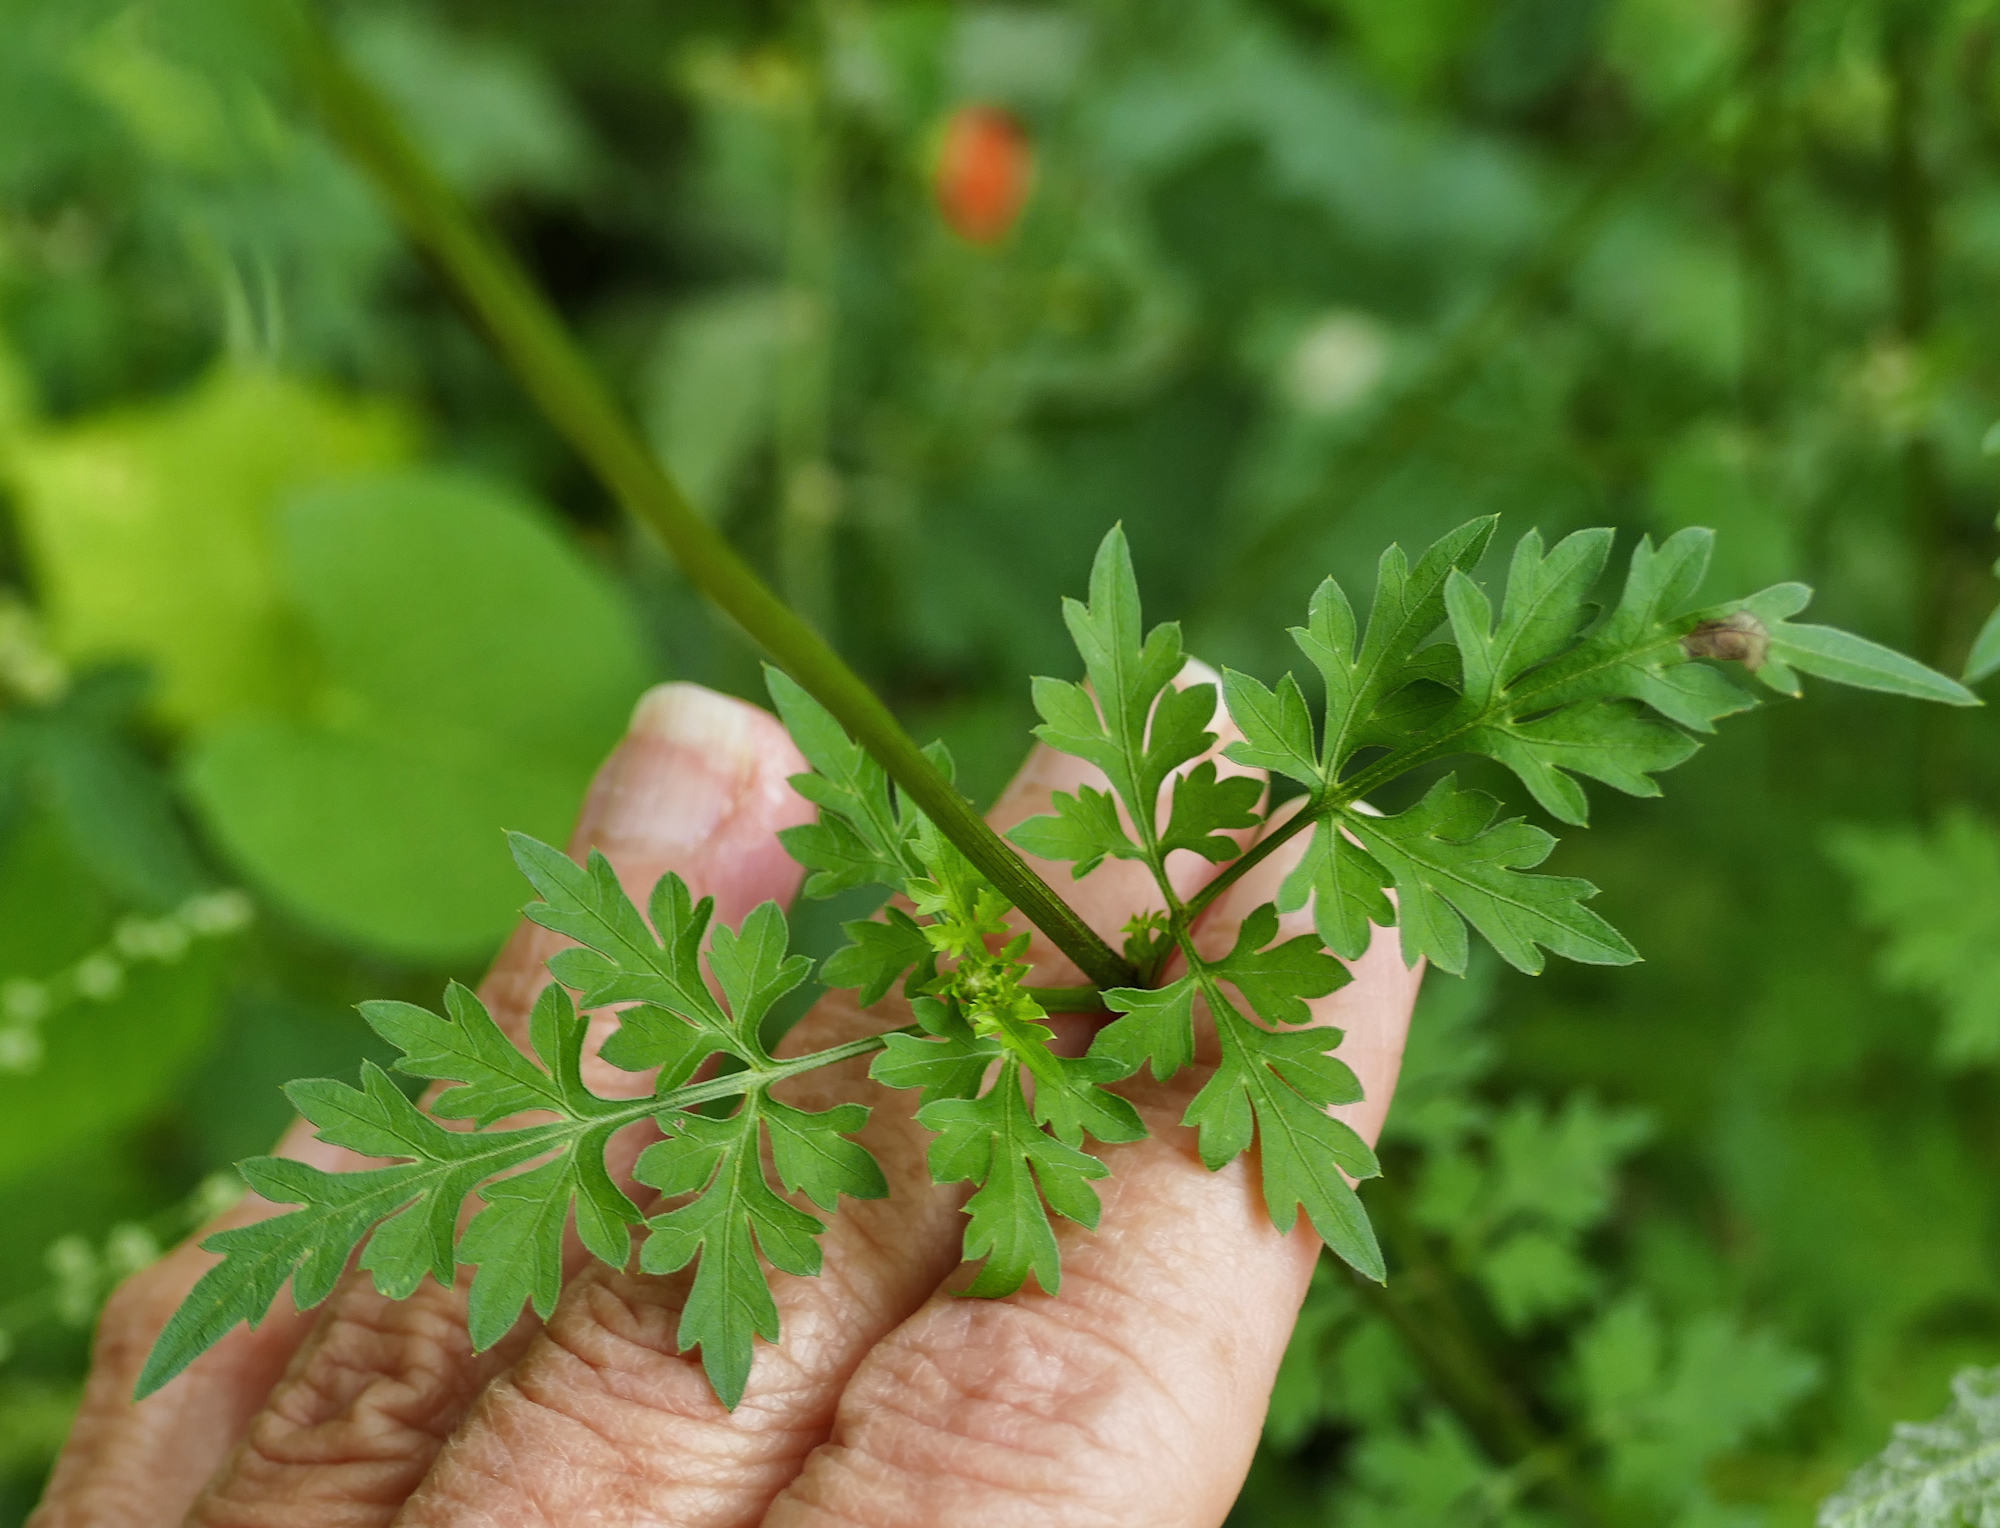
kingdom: Plantae
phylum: Tracheophyta
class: Magnoliopsida
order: Asterales
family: Asteraceae
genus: Bidens
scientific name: Bidens bigelovii
